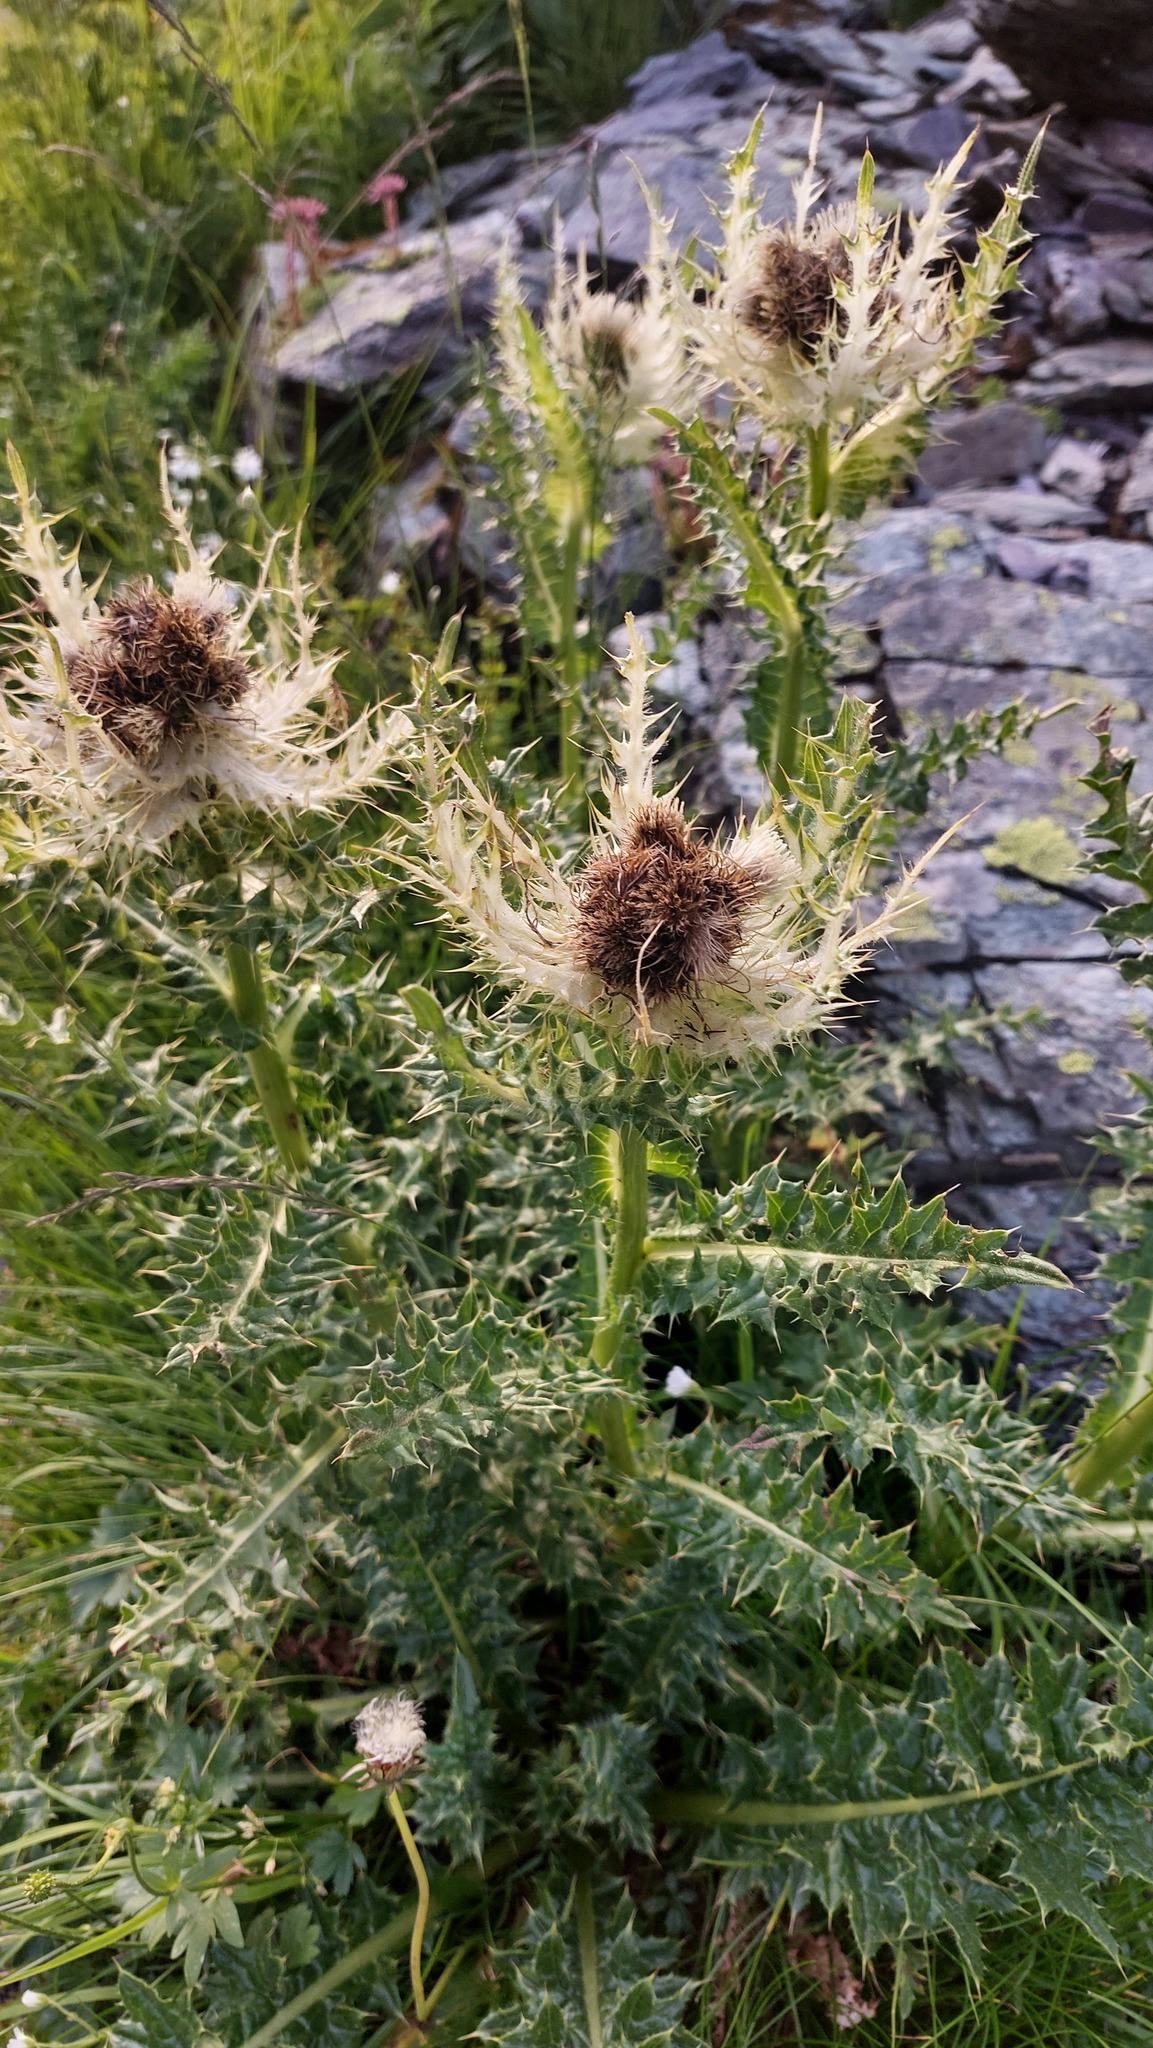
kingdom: Plantae
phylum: Tracheophyta
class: Magnoliopsida
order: Asterales
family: Asteraceae
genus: Cirsium
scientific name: Cirsium spinosissimum
